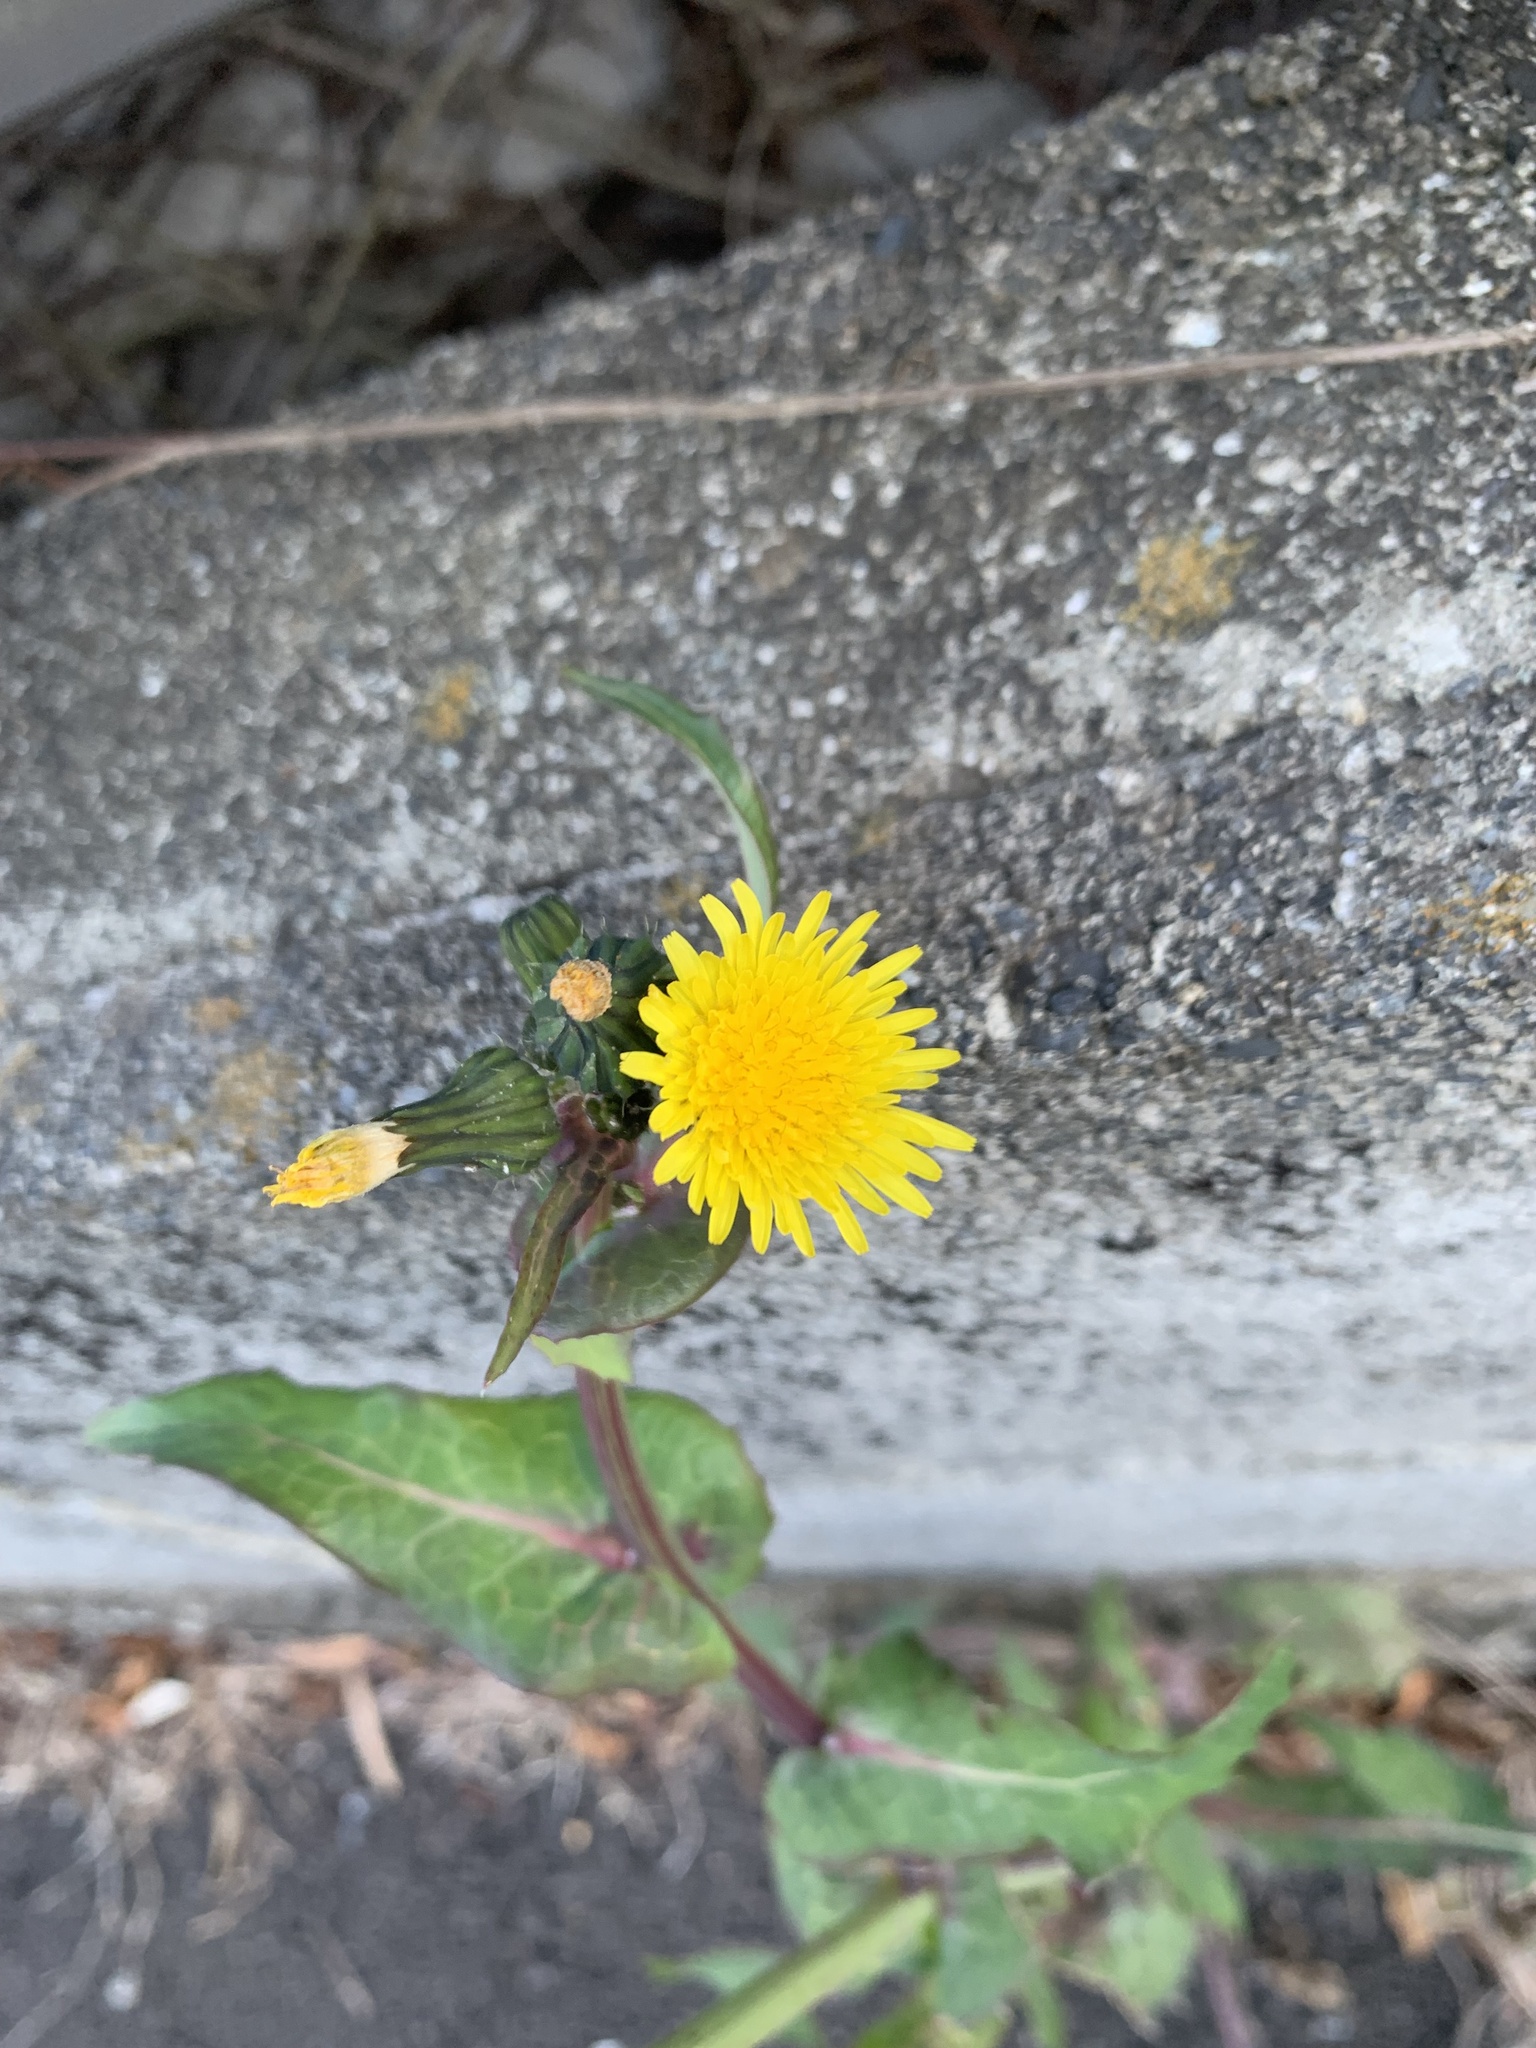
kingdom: Plantae
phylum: Tracheophyta
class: Magnoliopsida
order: Asterales
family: Asteraceae
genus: Sonchus
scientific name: Sonchus oleraceus
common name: Common sowthistle
